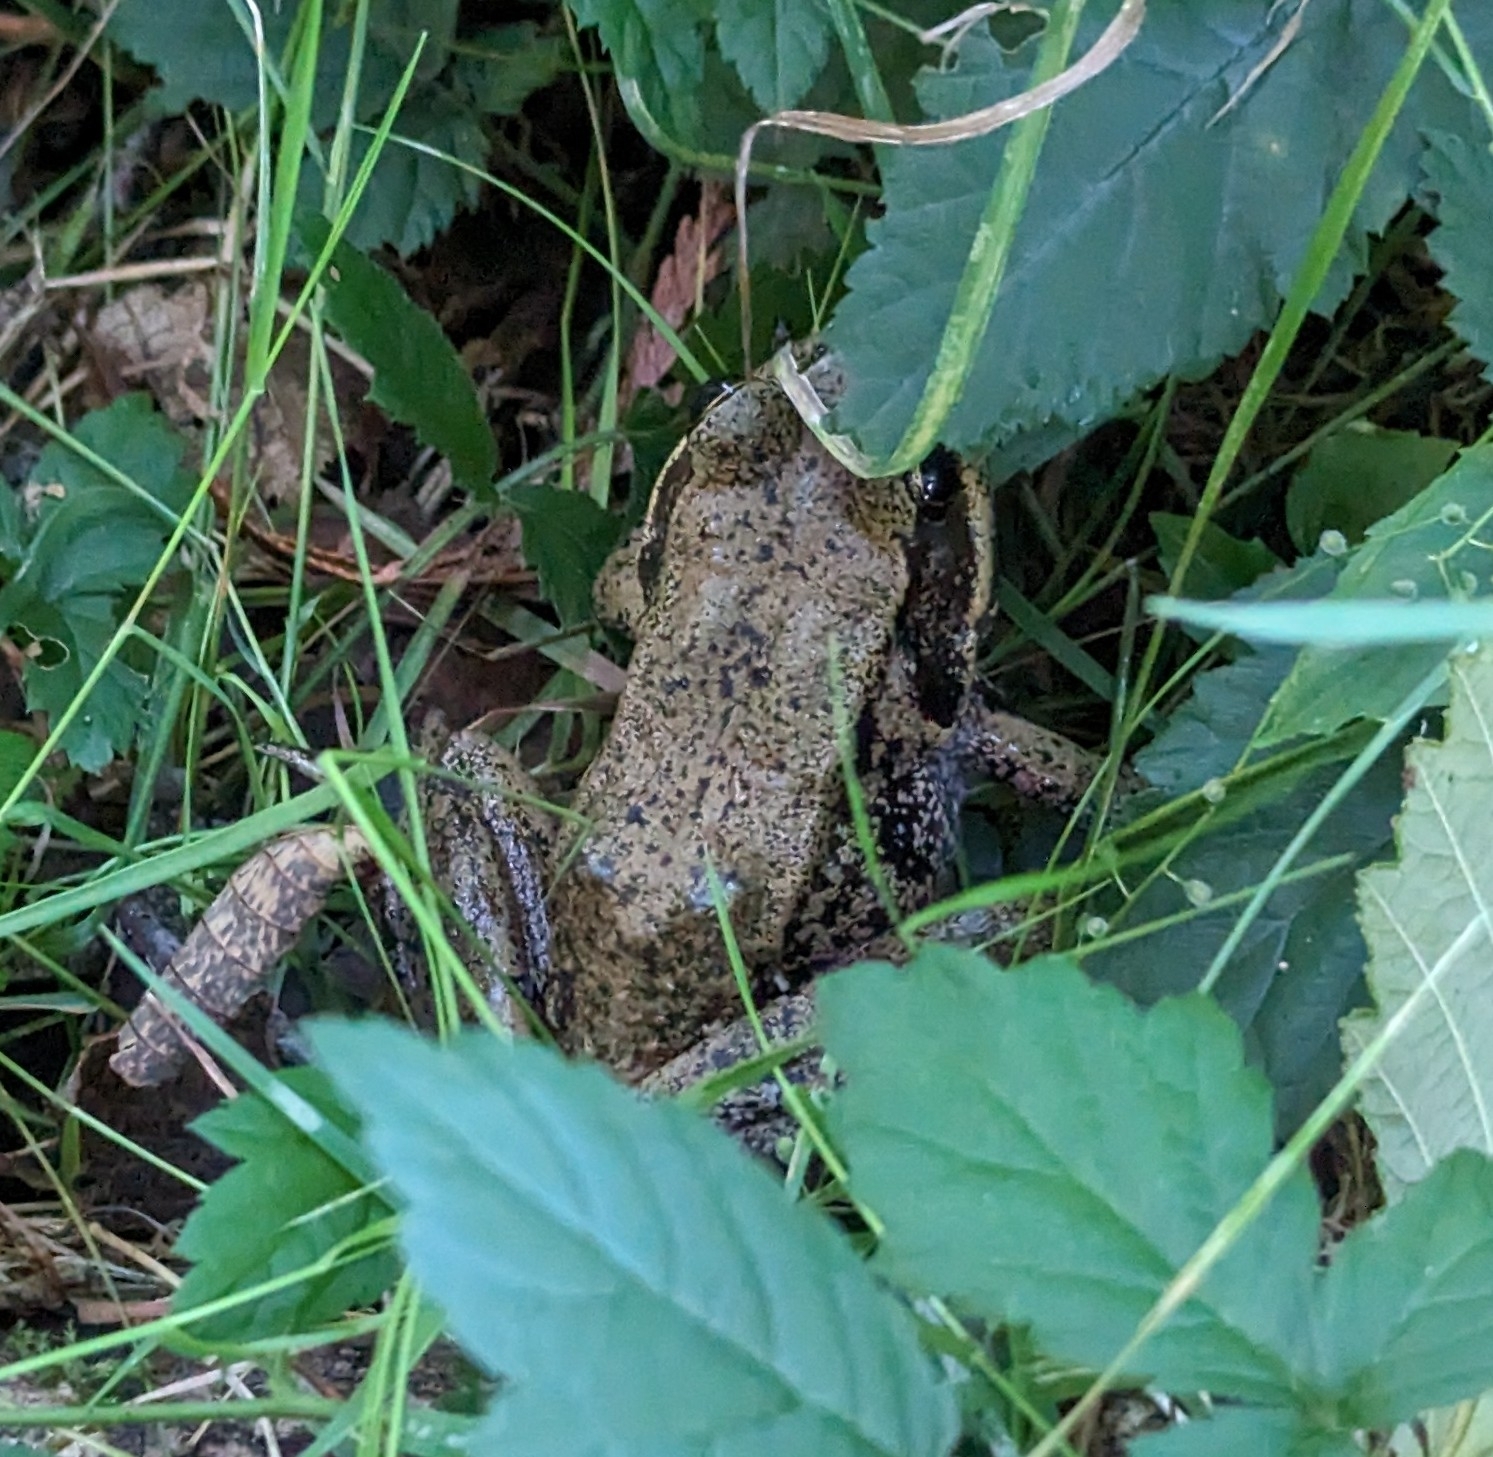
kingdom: Animalia
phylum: Chordata
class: Amphibia
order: Anura
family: Ranidae
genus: Rana
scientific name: Rana aurora
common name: Red-legged frog
